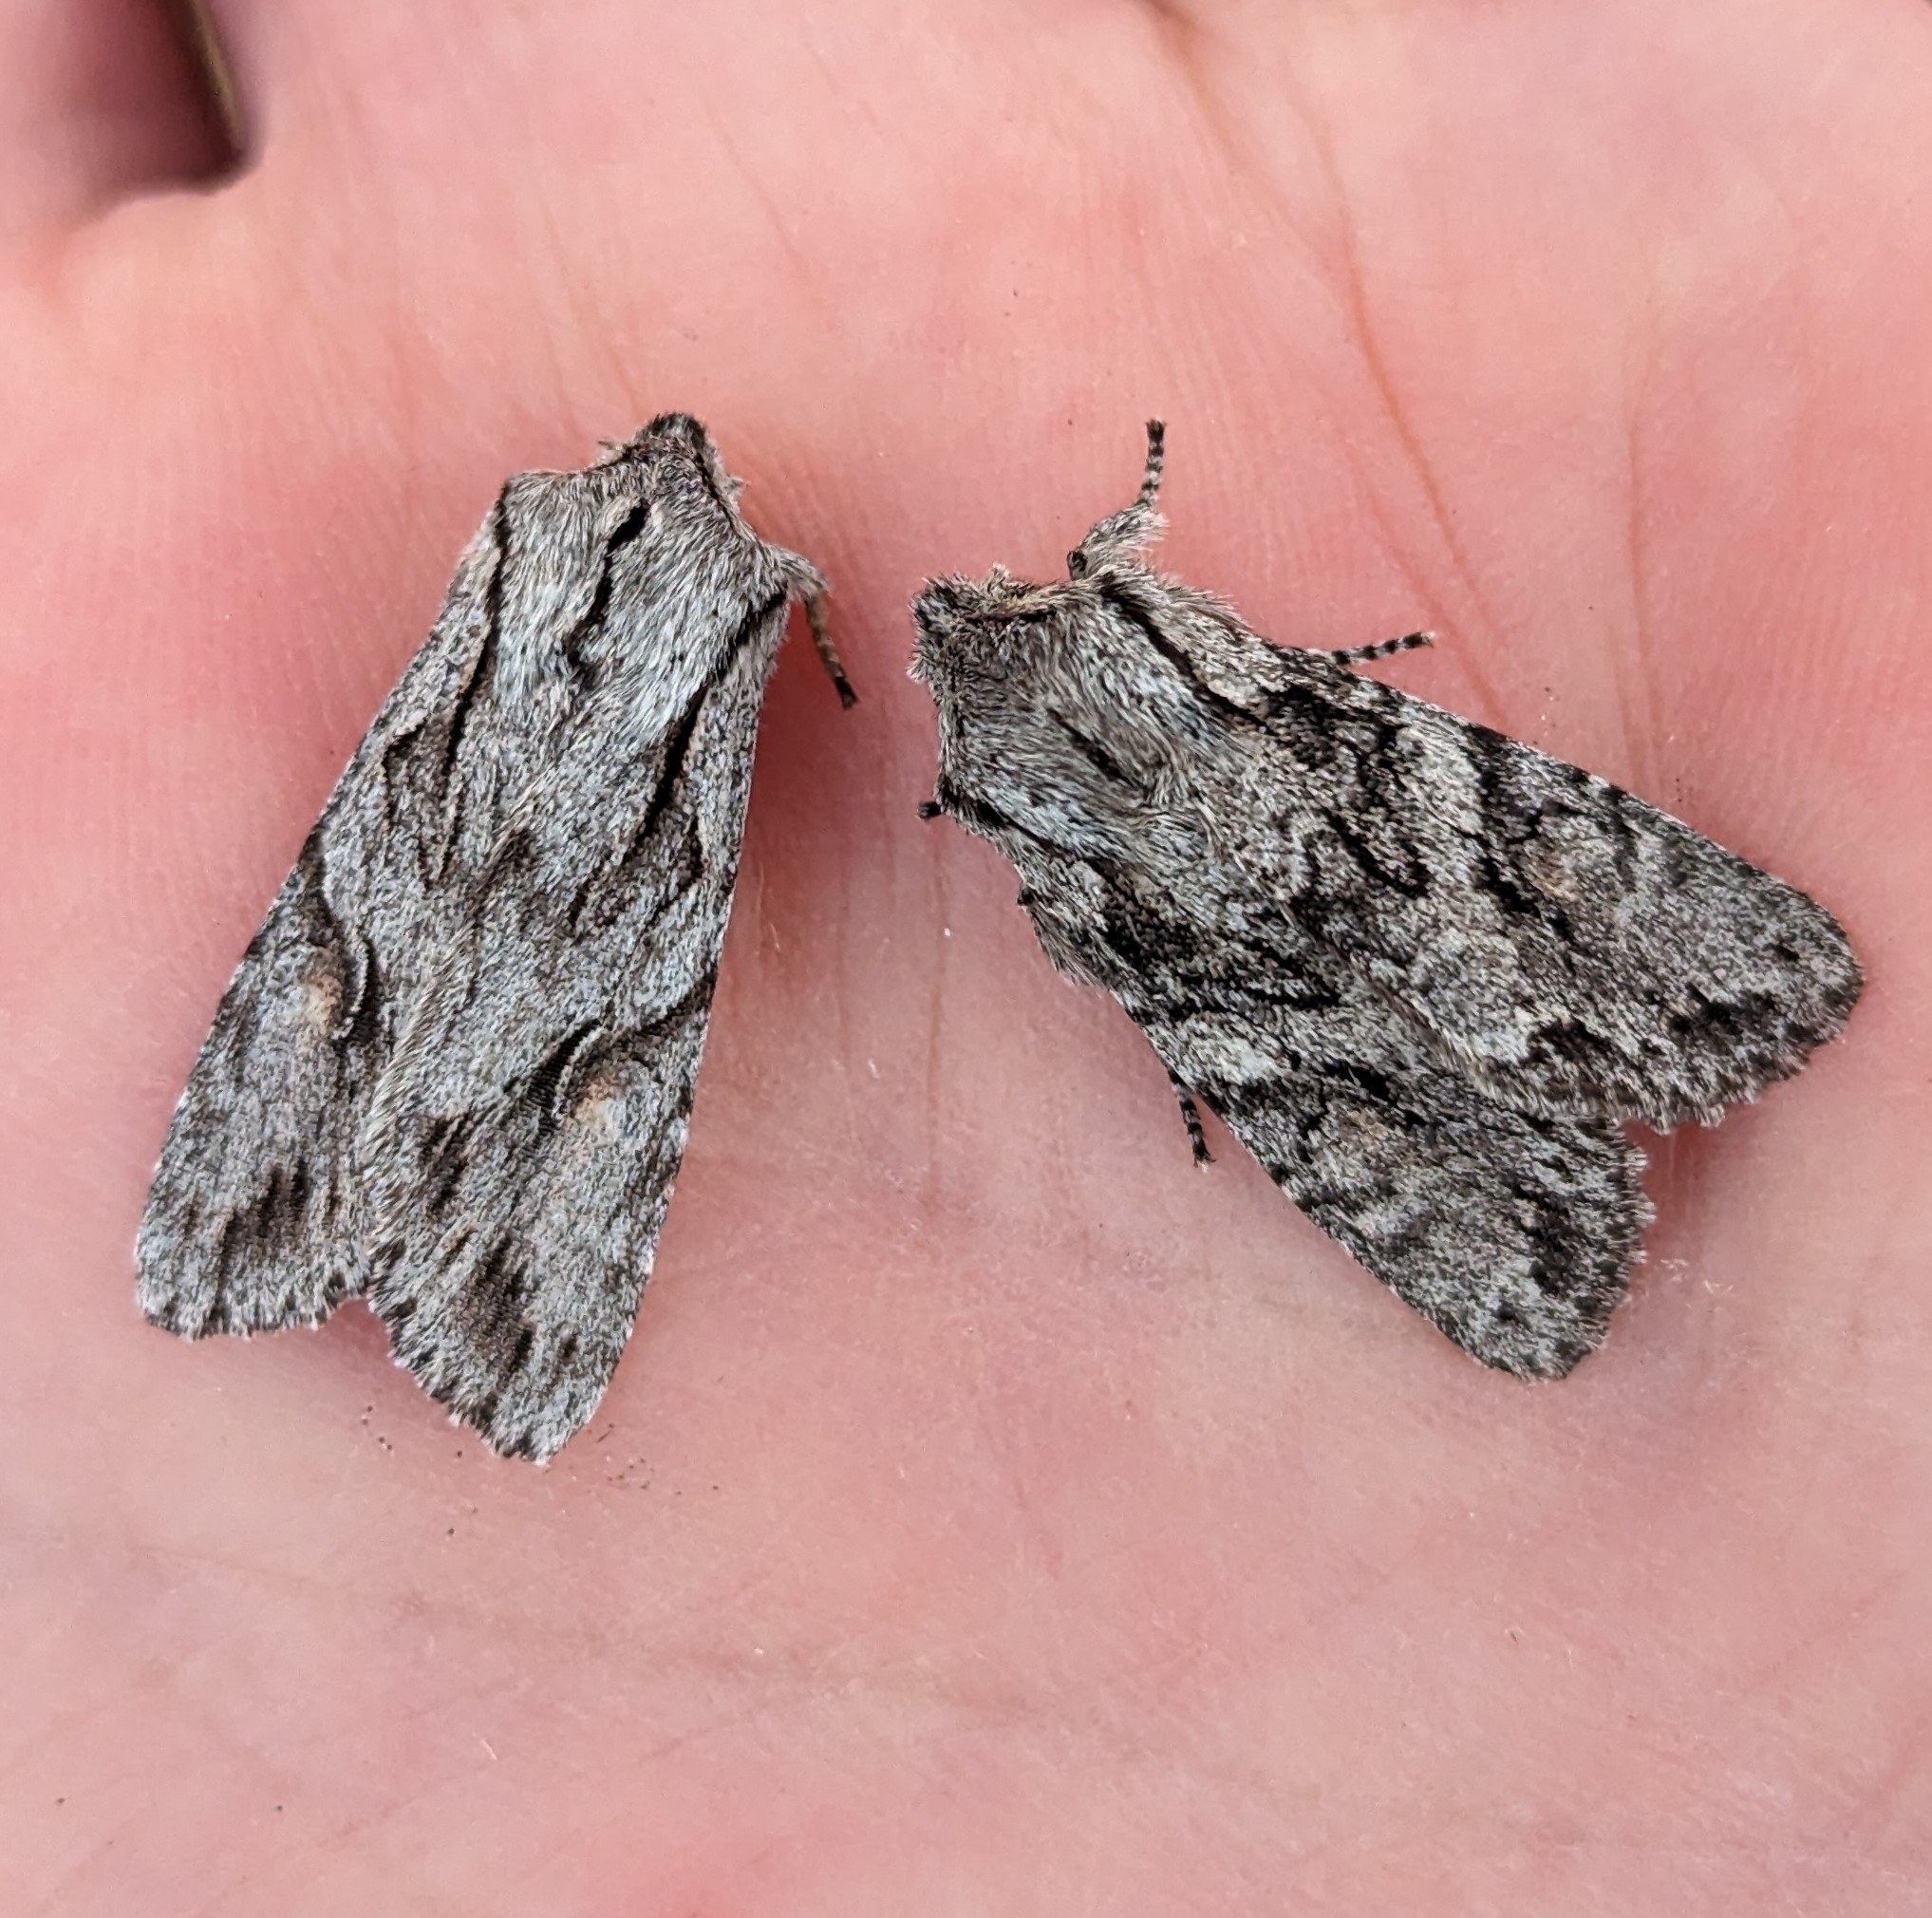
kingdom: Animalia
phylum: Arthropoda
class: Insecta
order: Lepidoptera
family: Noctuidae
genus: Egira
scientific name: Egira simplex
